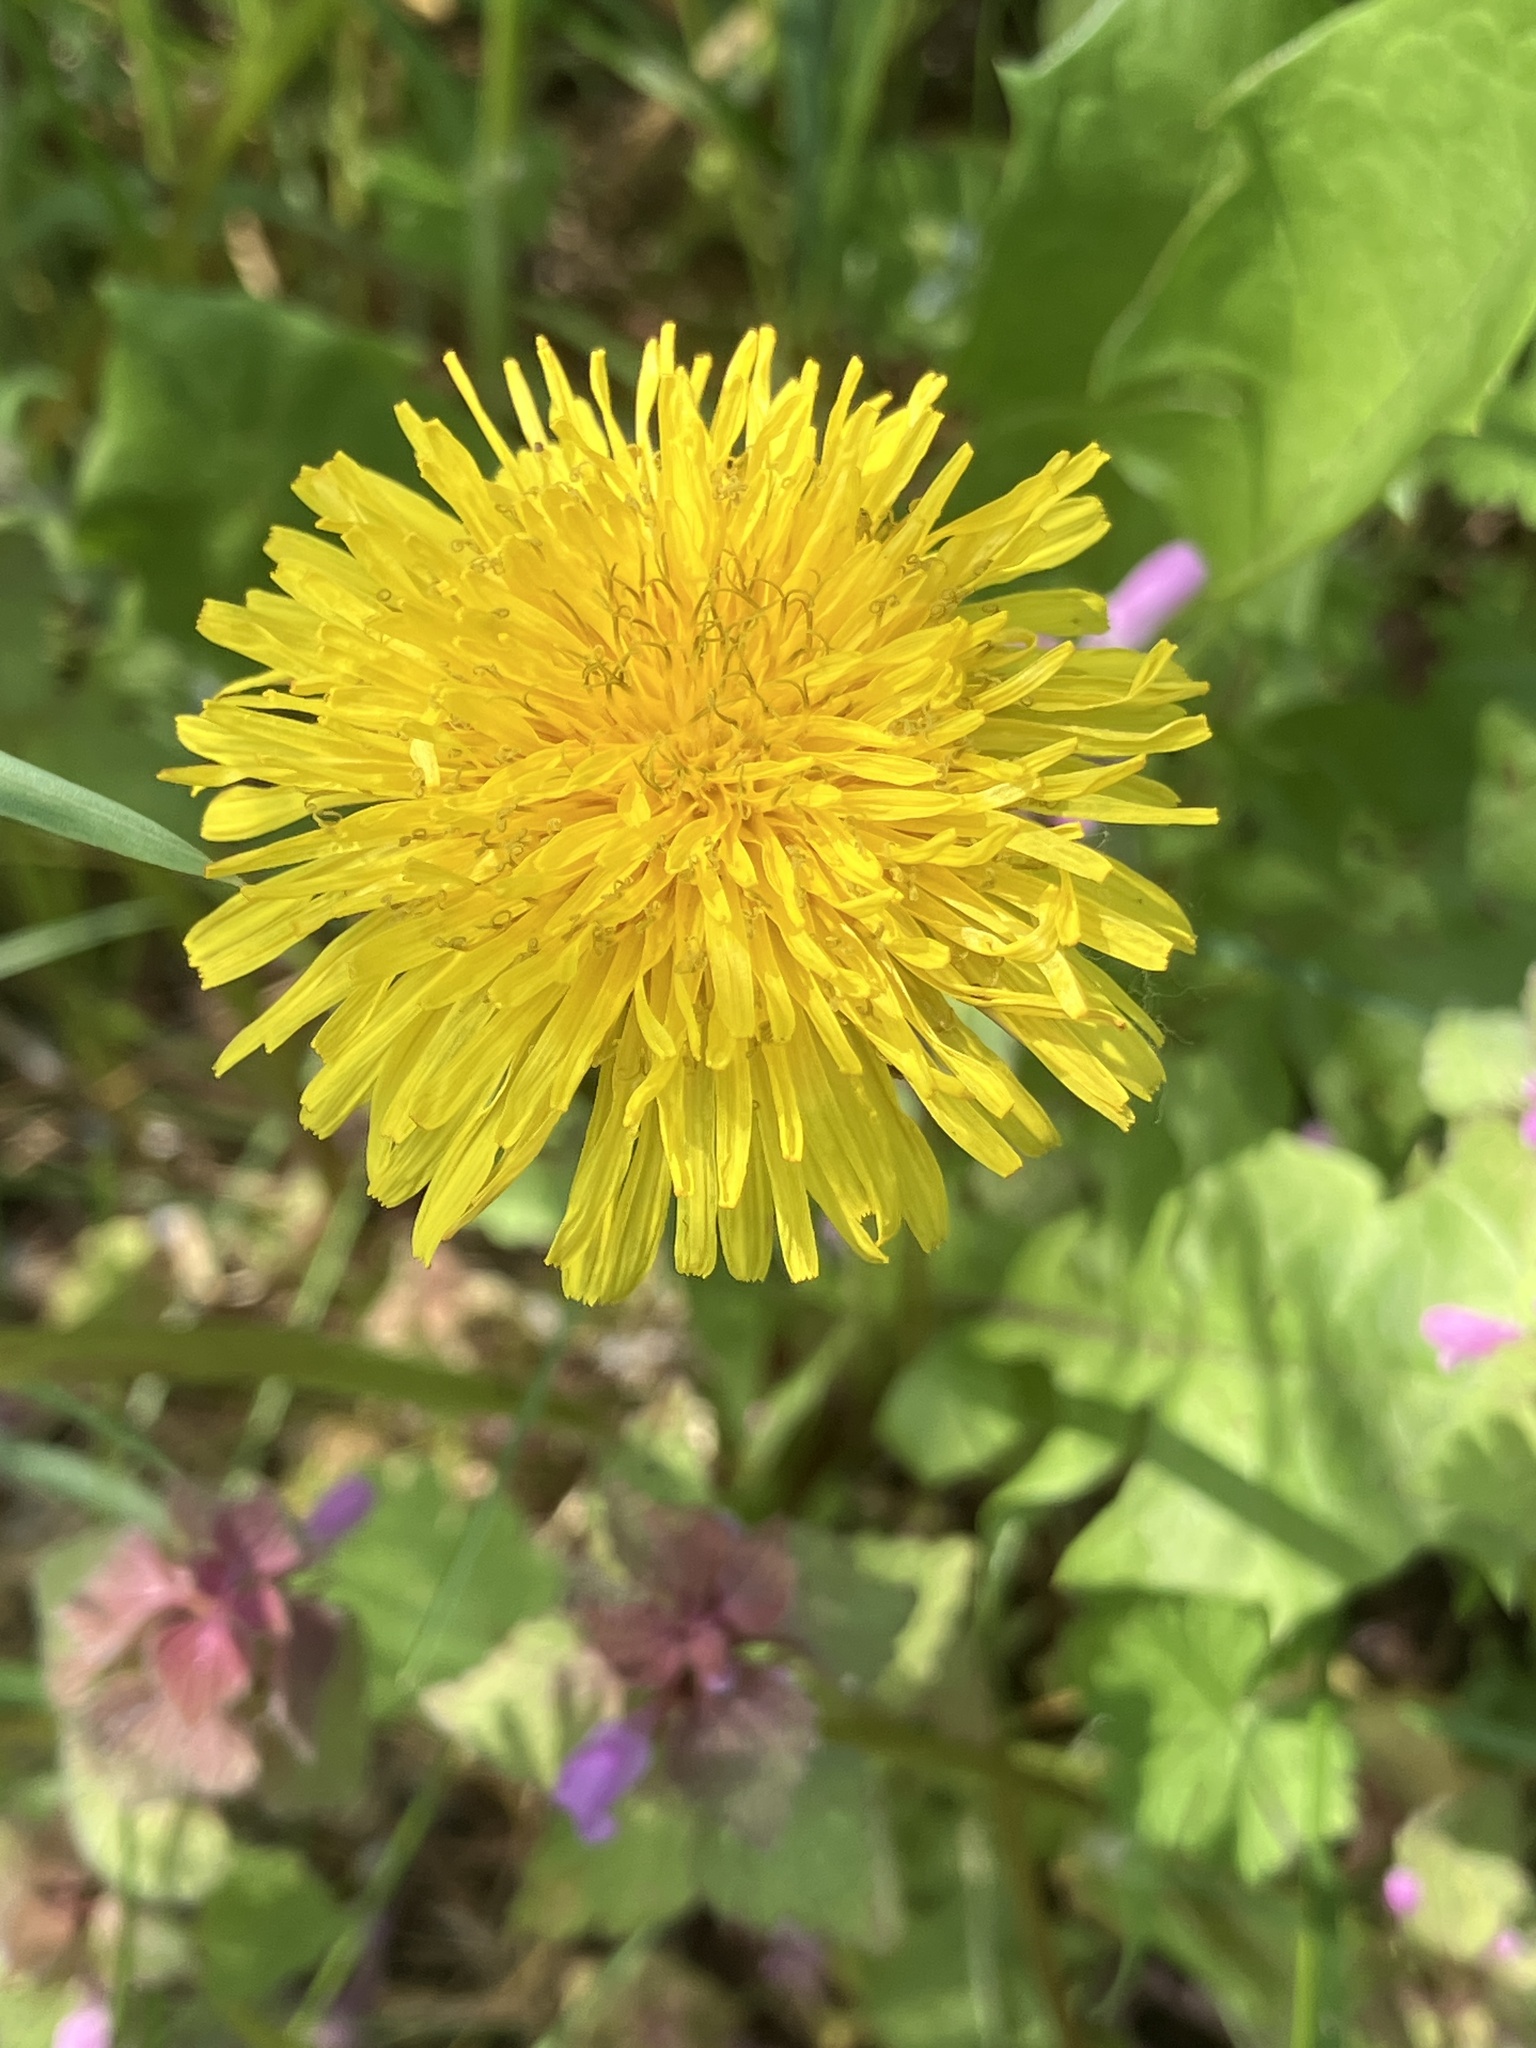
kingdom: Plantae
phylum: Tracheophyta
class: Magnoliopsida
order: Asterales
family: Asteraceae
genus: Taraxacum
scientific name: Taraxacum
